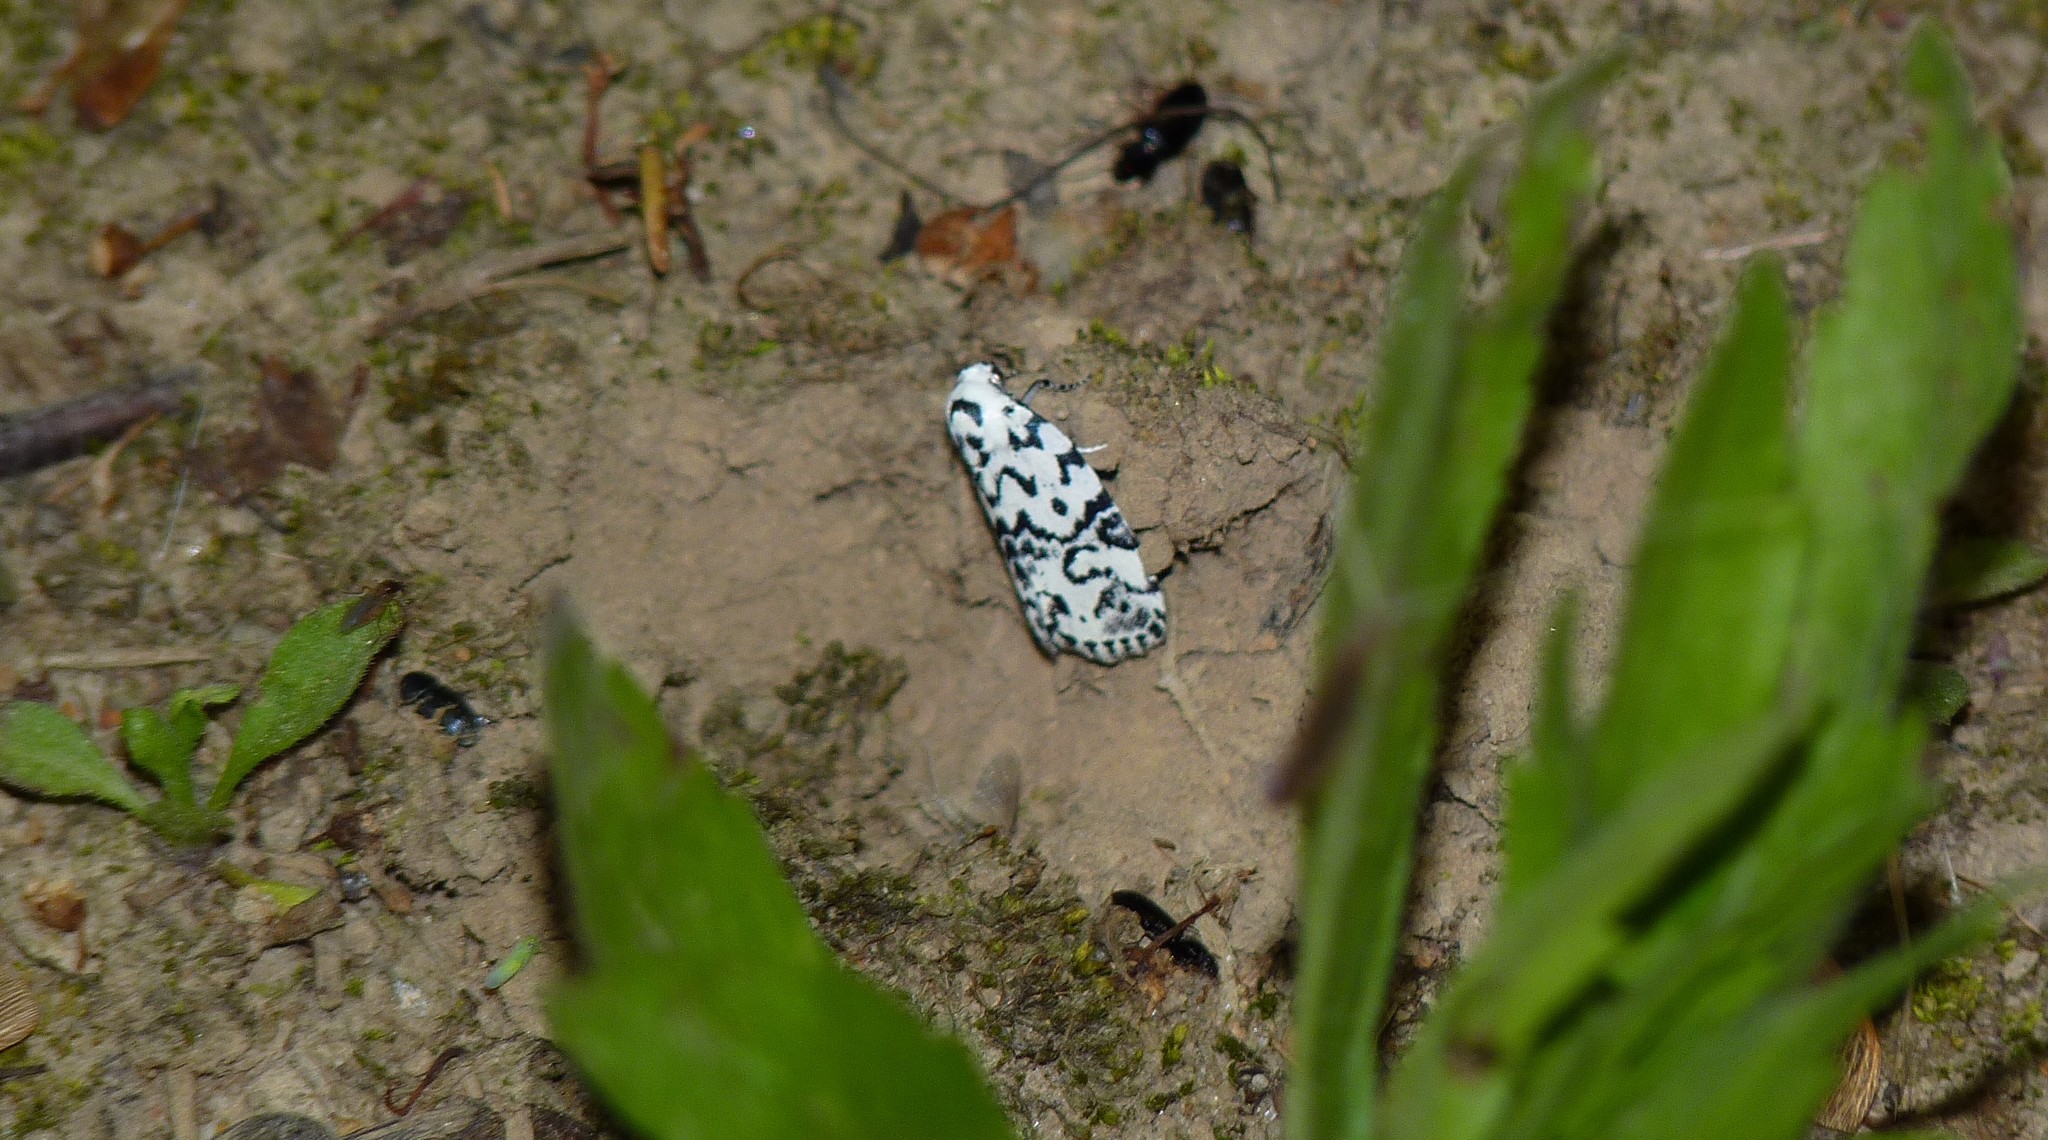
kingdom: Animalia
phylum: Arthropoda
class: Insecta
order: Lepidoptera
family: Noctuidae
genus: Polygrammate
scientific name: Polygrammate hebraeicum
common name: Hebrew moth
